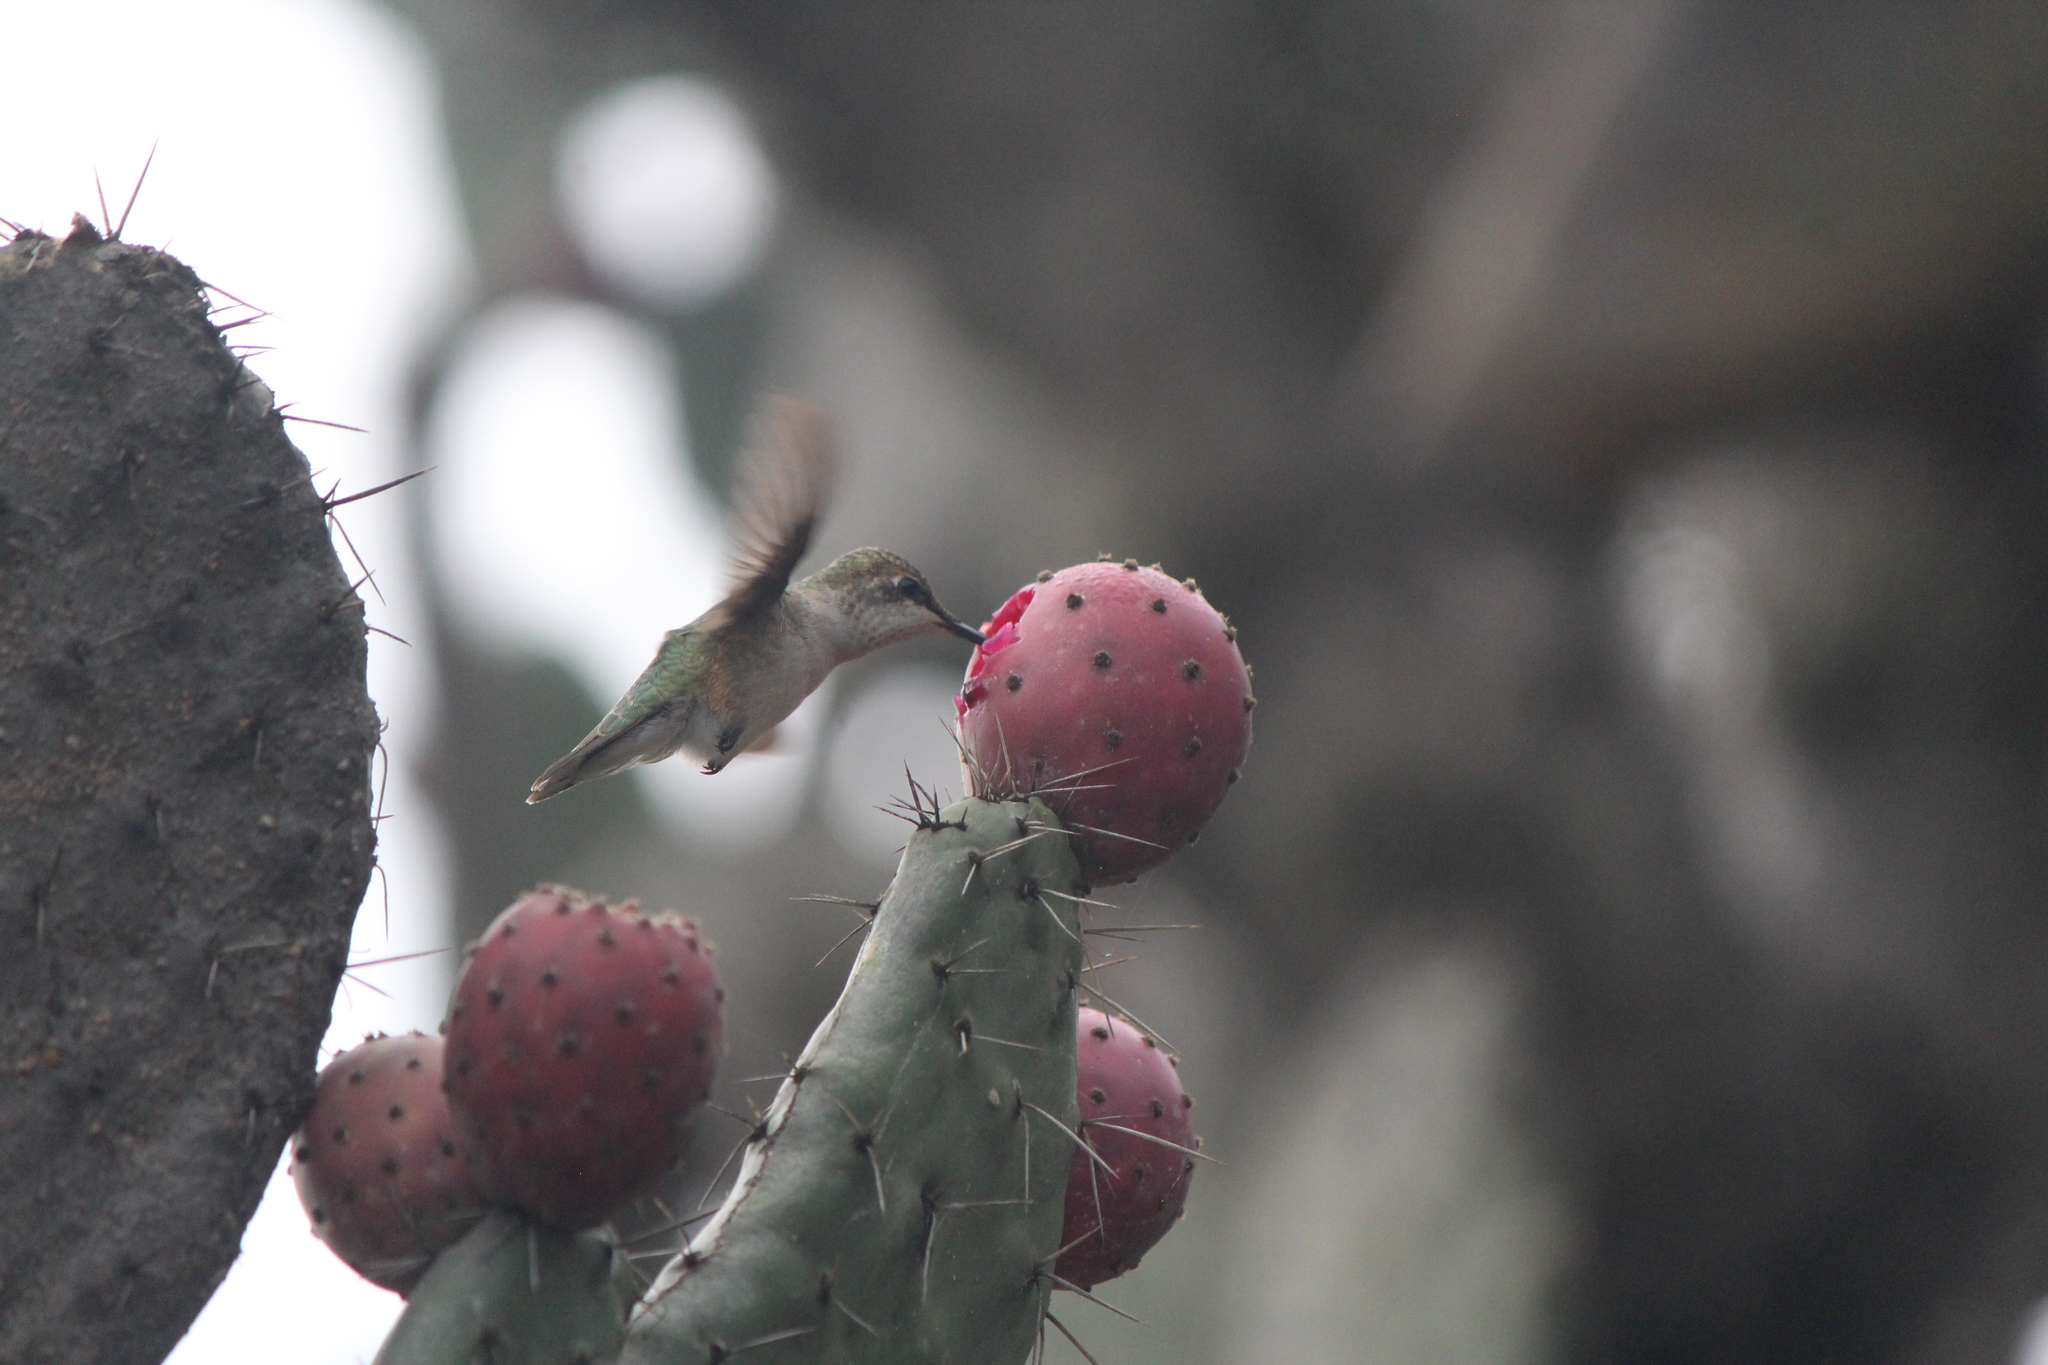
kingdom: Animalia
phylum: Chordata
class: Aves
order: Apodiformes
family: Trochilidae
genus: Archilochus
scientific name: Archilochus colubris
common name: Ruby-throated hummingbird
